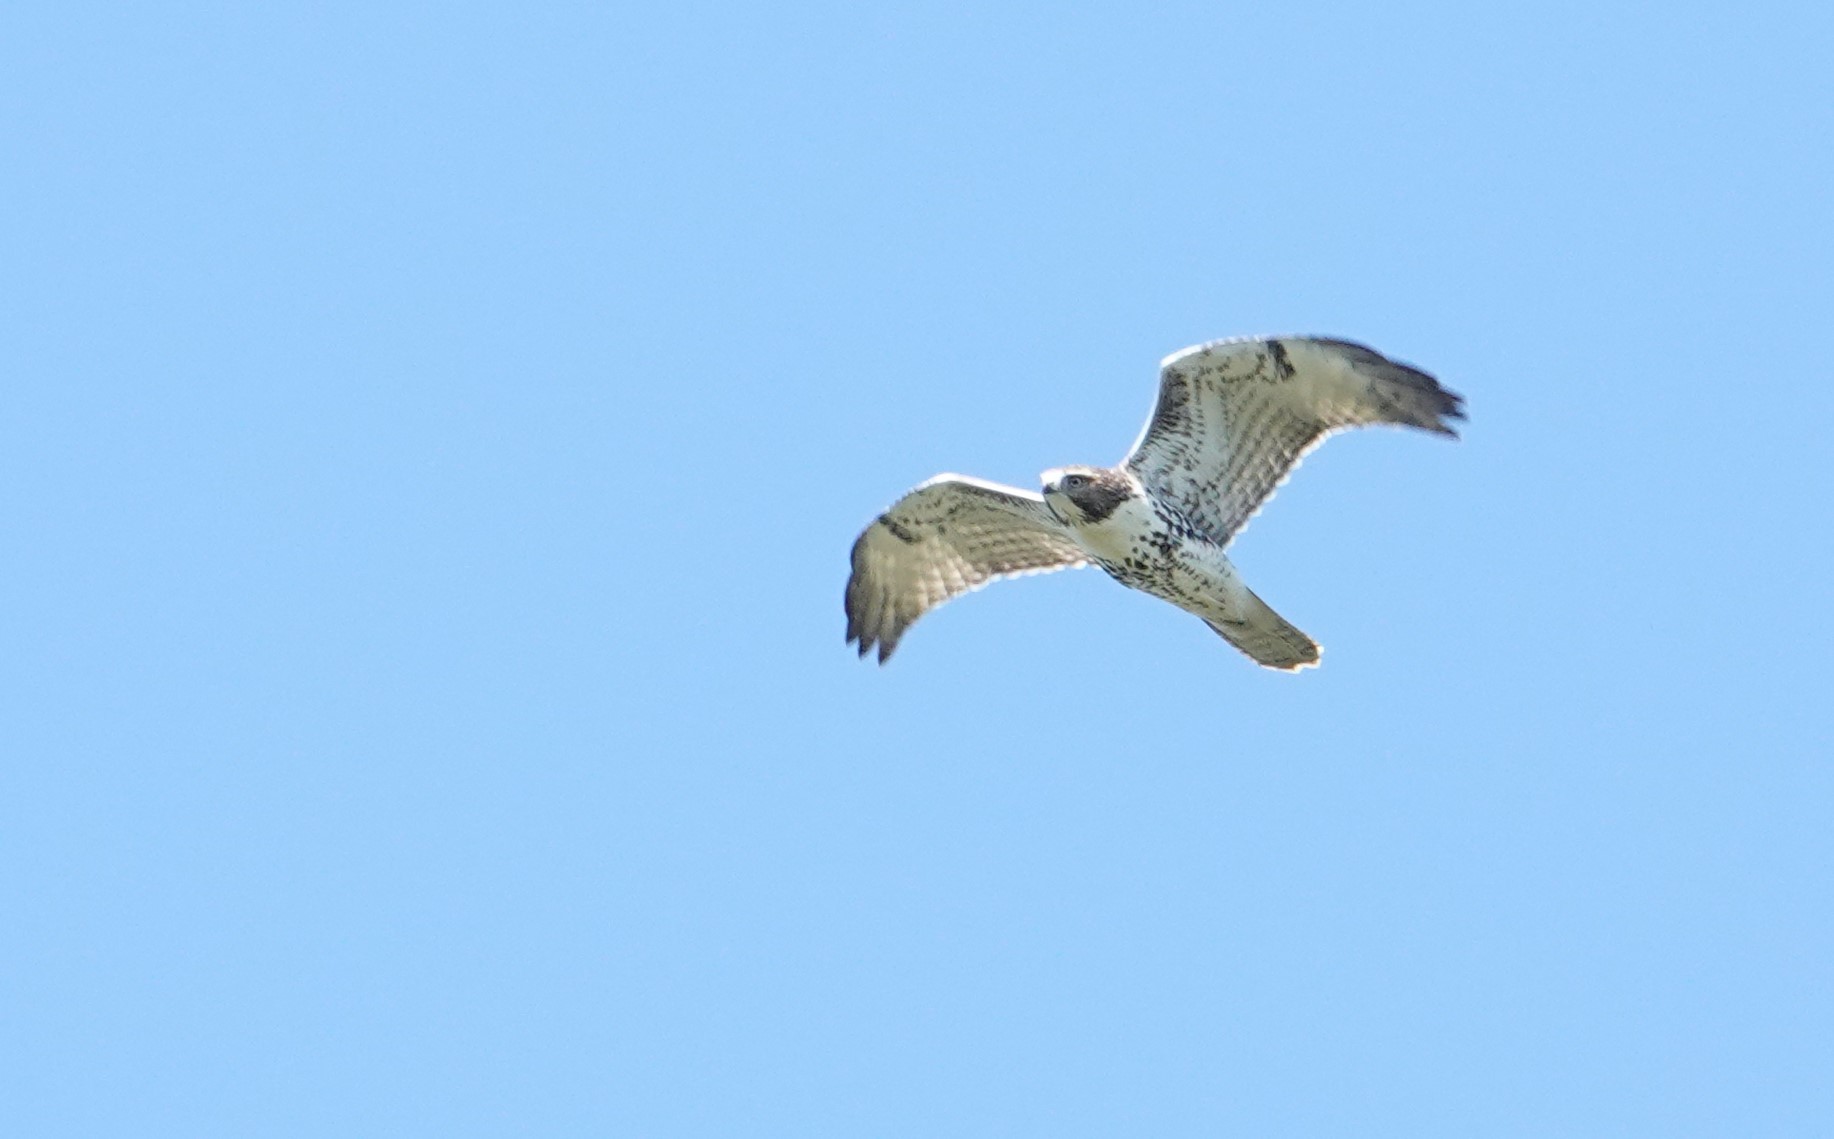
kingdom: Animalia
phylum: Chordata
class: Aves
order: Accipitriformes
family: Accipitridae
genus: Buteo
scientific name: Buteo jamaicensis
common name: Red-tailed hawk
